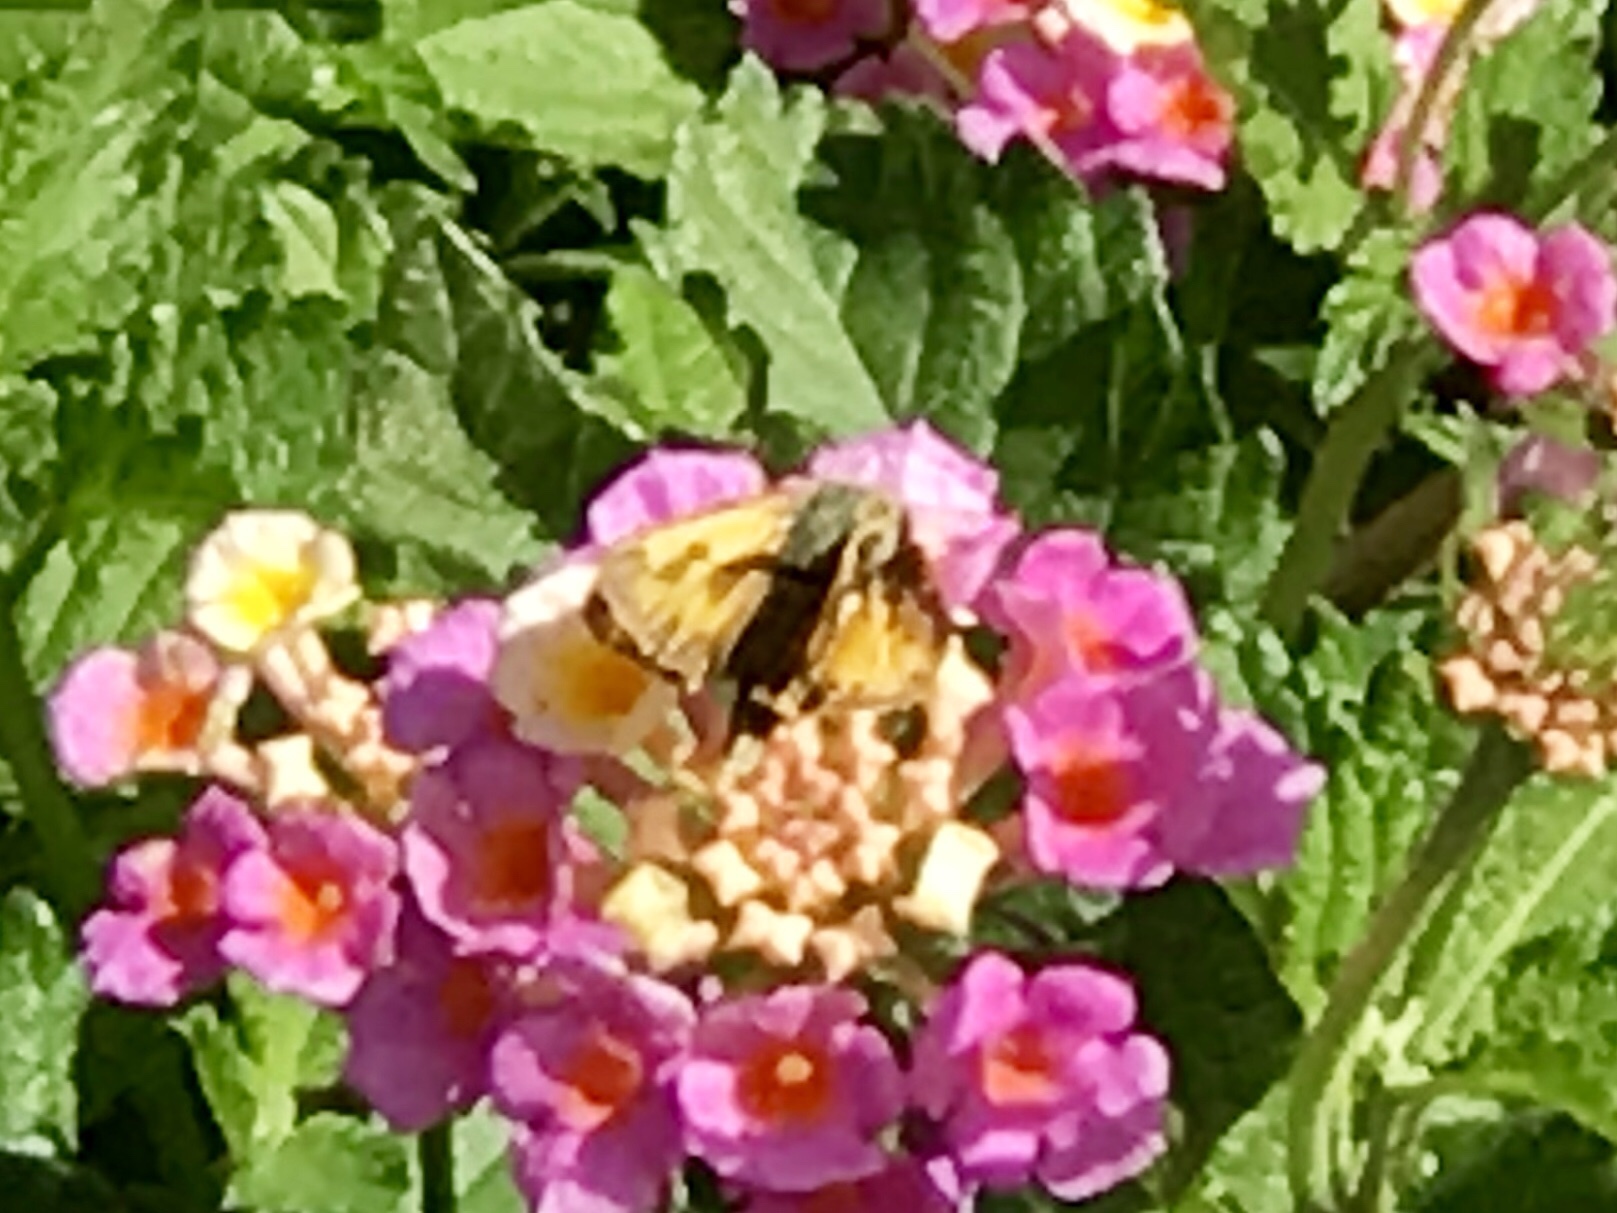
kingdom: Animalia
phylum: Arthropoda
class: Insecta
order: Lepidoptera
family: Hesperiidae
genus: Hylephila
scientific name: Hylephila phyleus
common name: Fiery skipper
